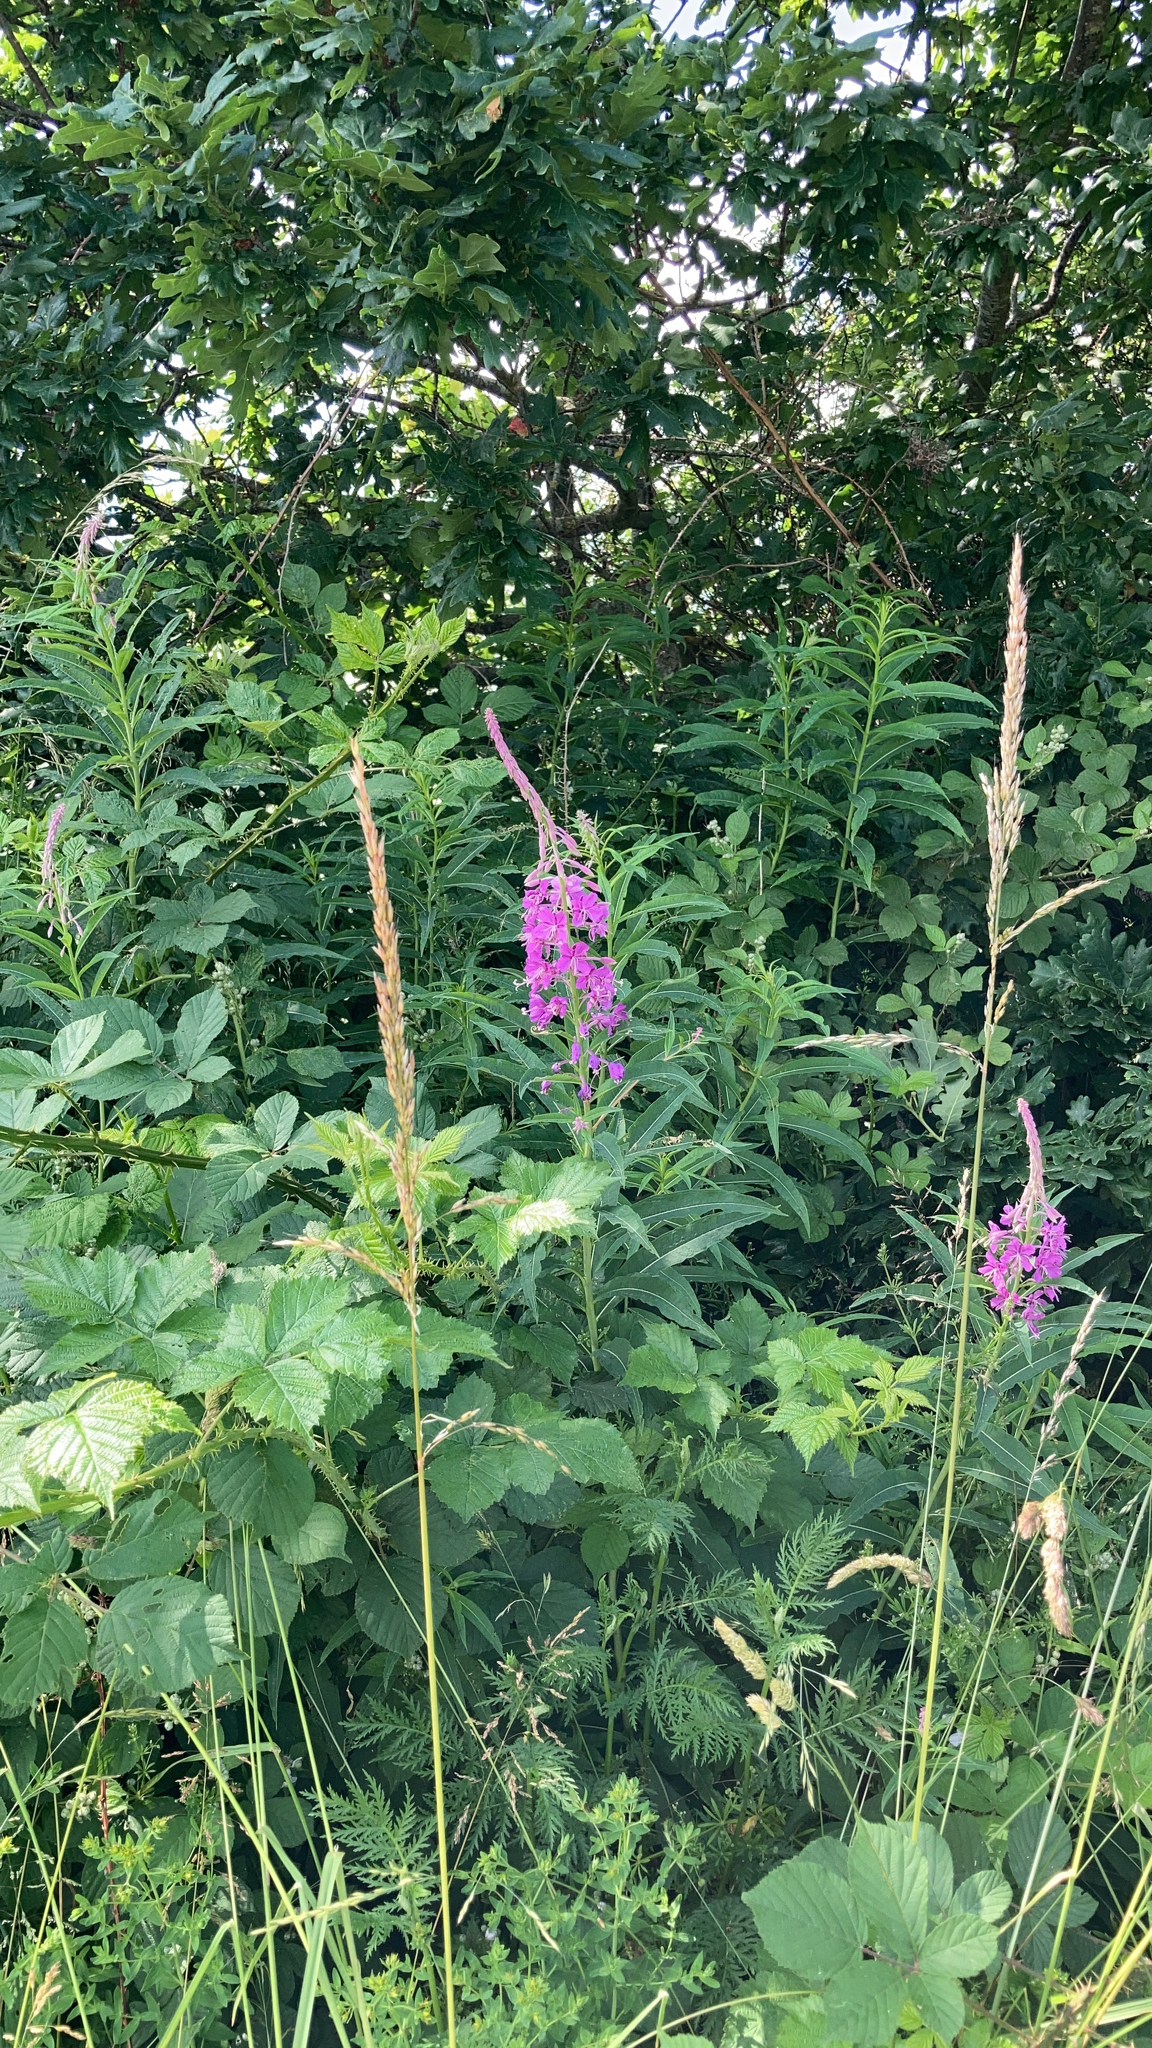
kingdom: Plantae
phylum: Tracheophyta
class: Magnoliopsida
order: Myrtales
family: Onagraceae
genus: Chamaenerion
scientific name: Chamaenerion angustifolium
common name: Fireweed
